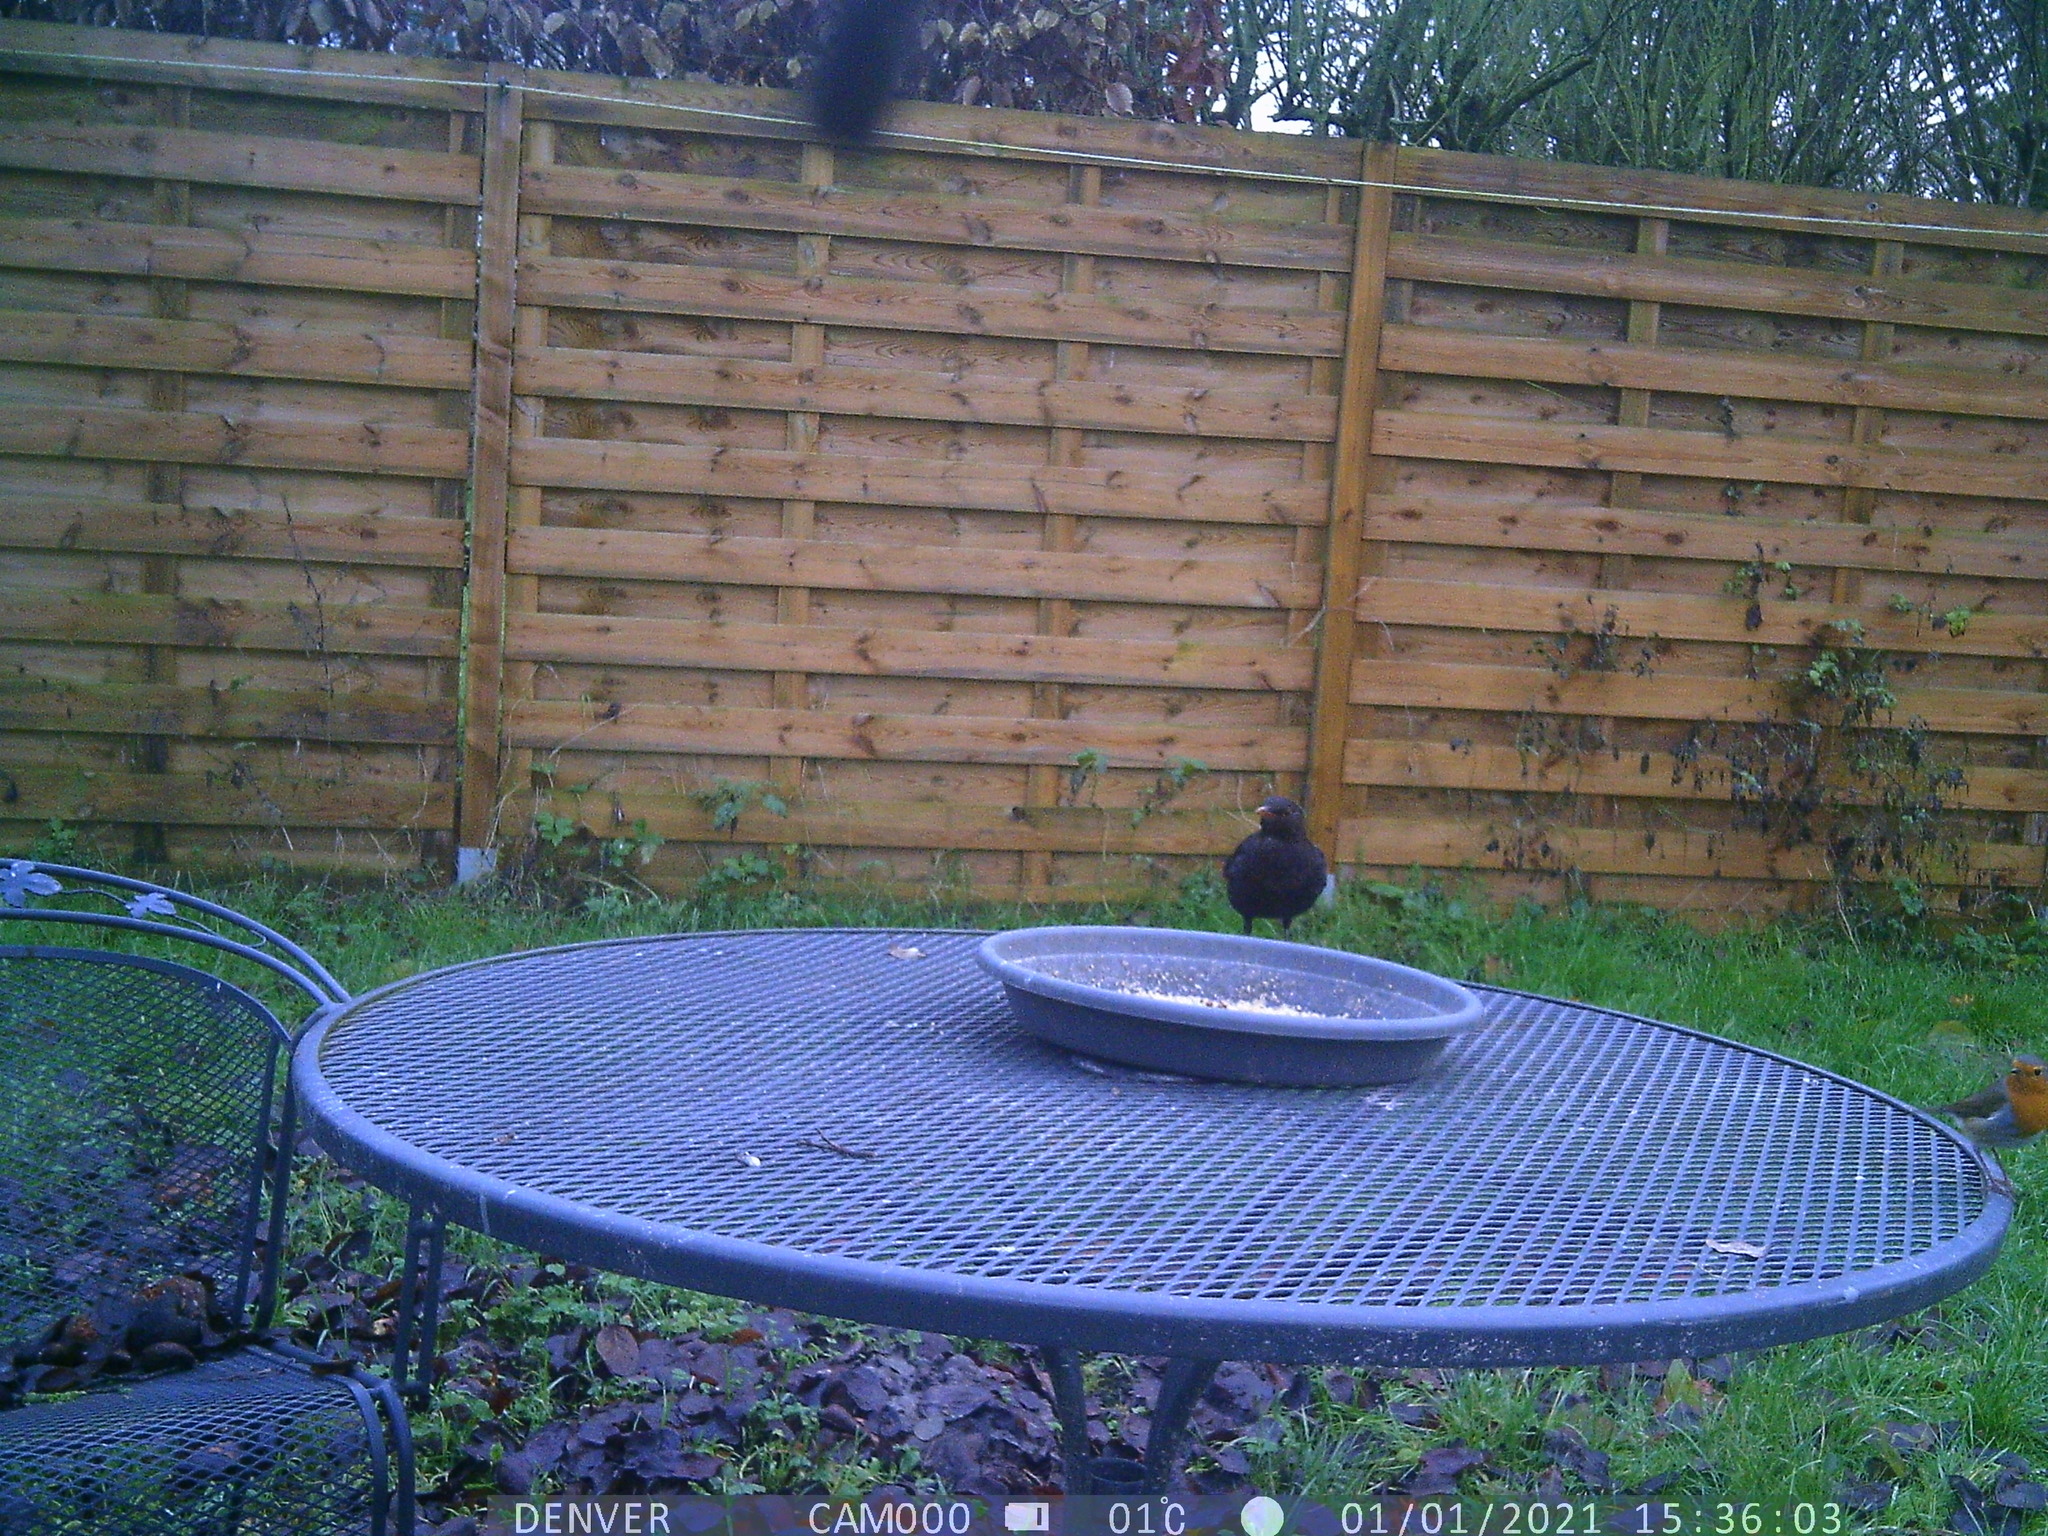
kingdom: Animalia
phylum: Chordata
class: Aves
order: Passeriformes
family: Turdidae
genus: Turdus
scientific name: Turdus merula
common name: Common blackbird
